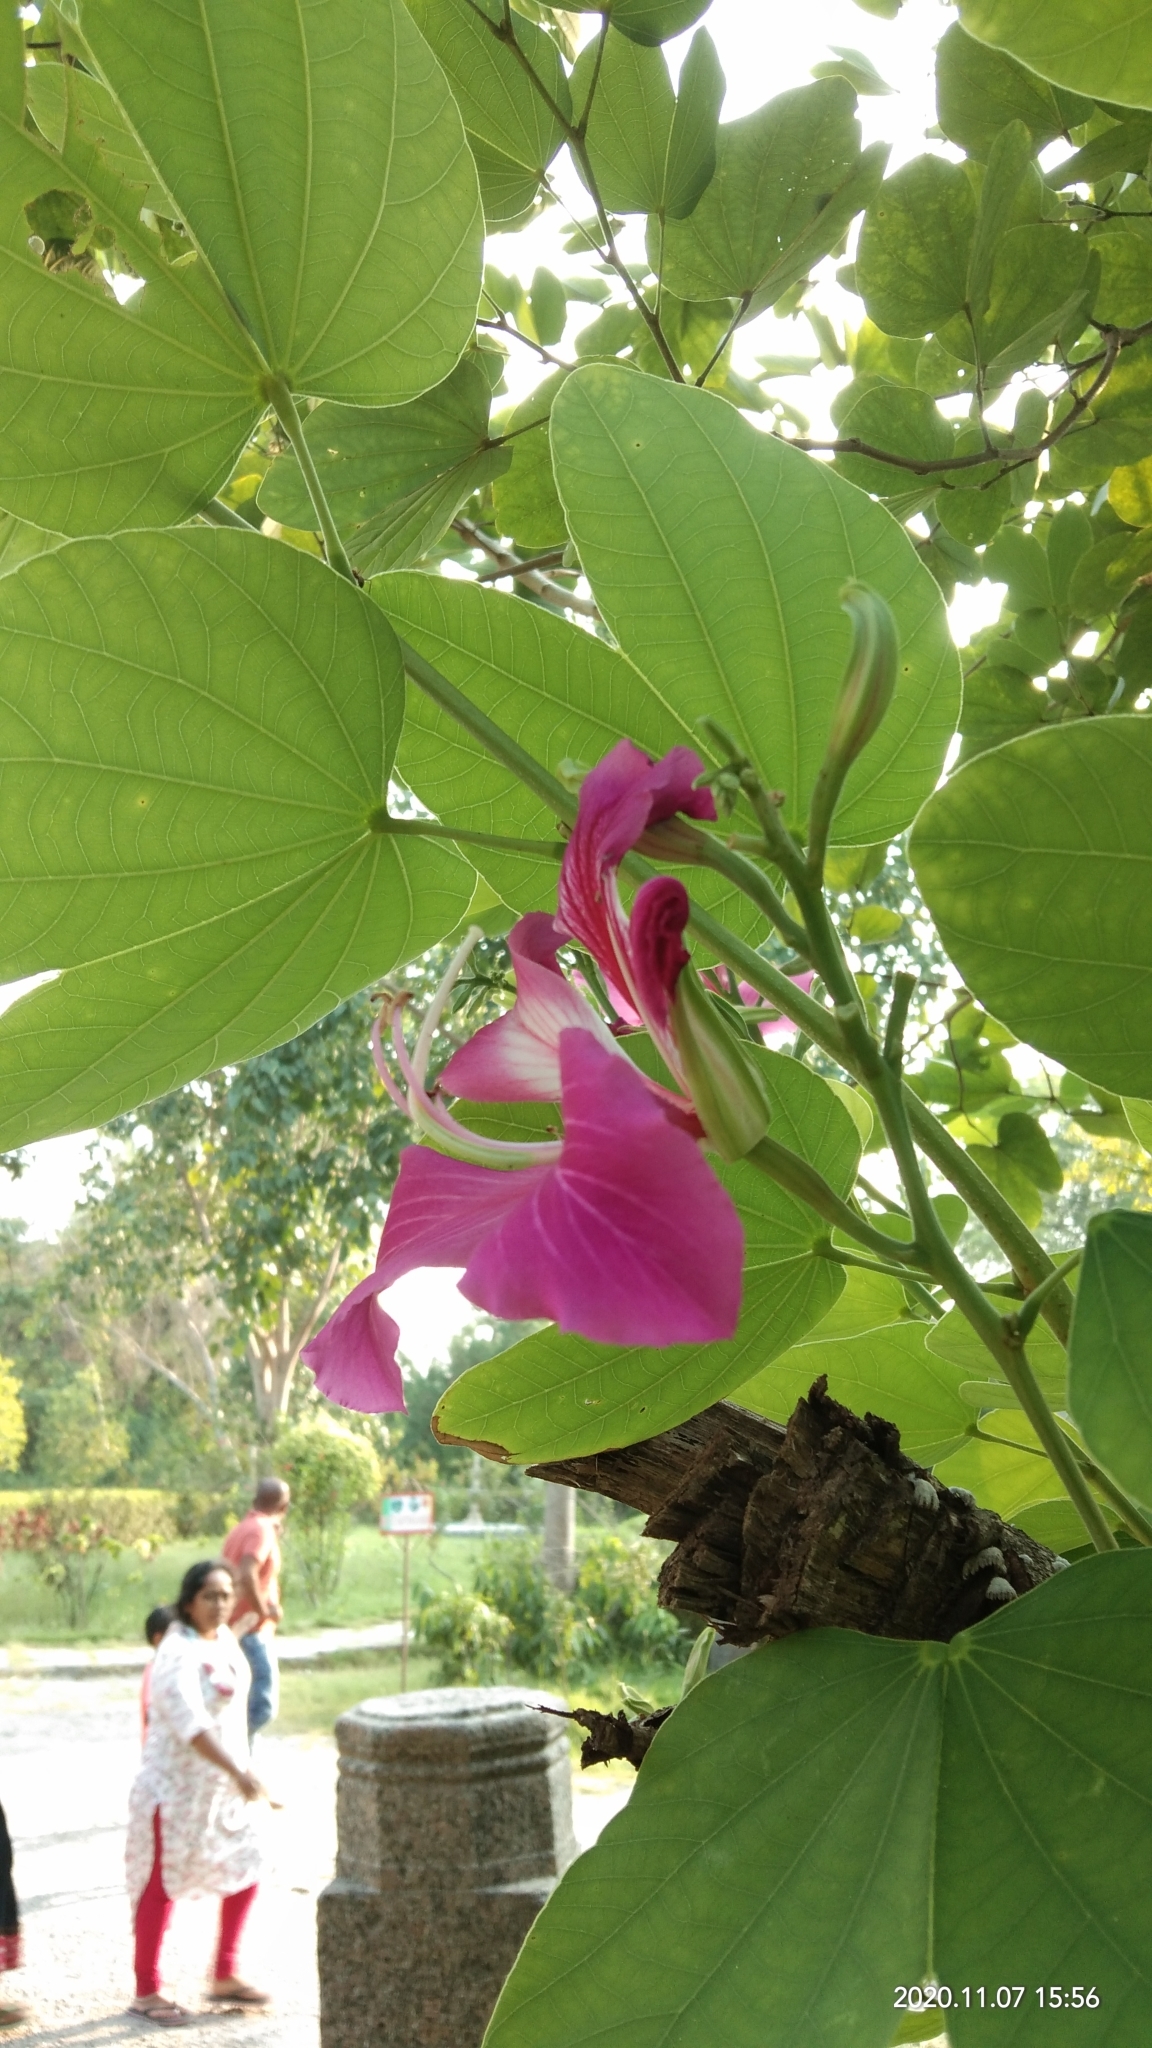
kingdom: Plantae
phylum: Tracheophyta
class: Magnoliopsida
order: Fabales
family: Fabaceae
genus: Bauhinia
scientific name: Bauhinia variegata
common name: Mountain ebony
